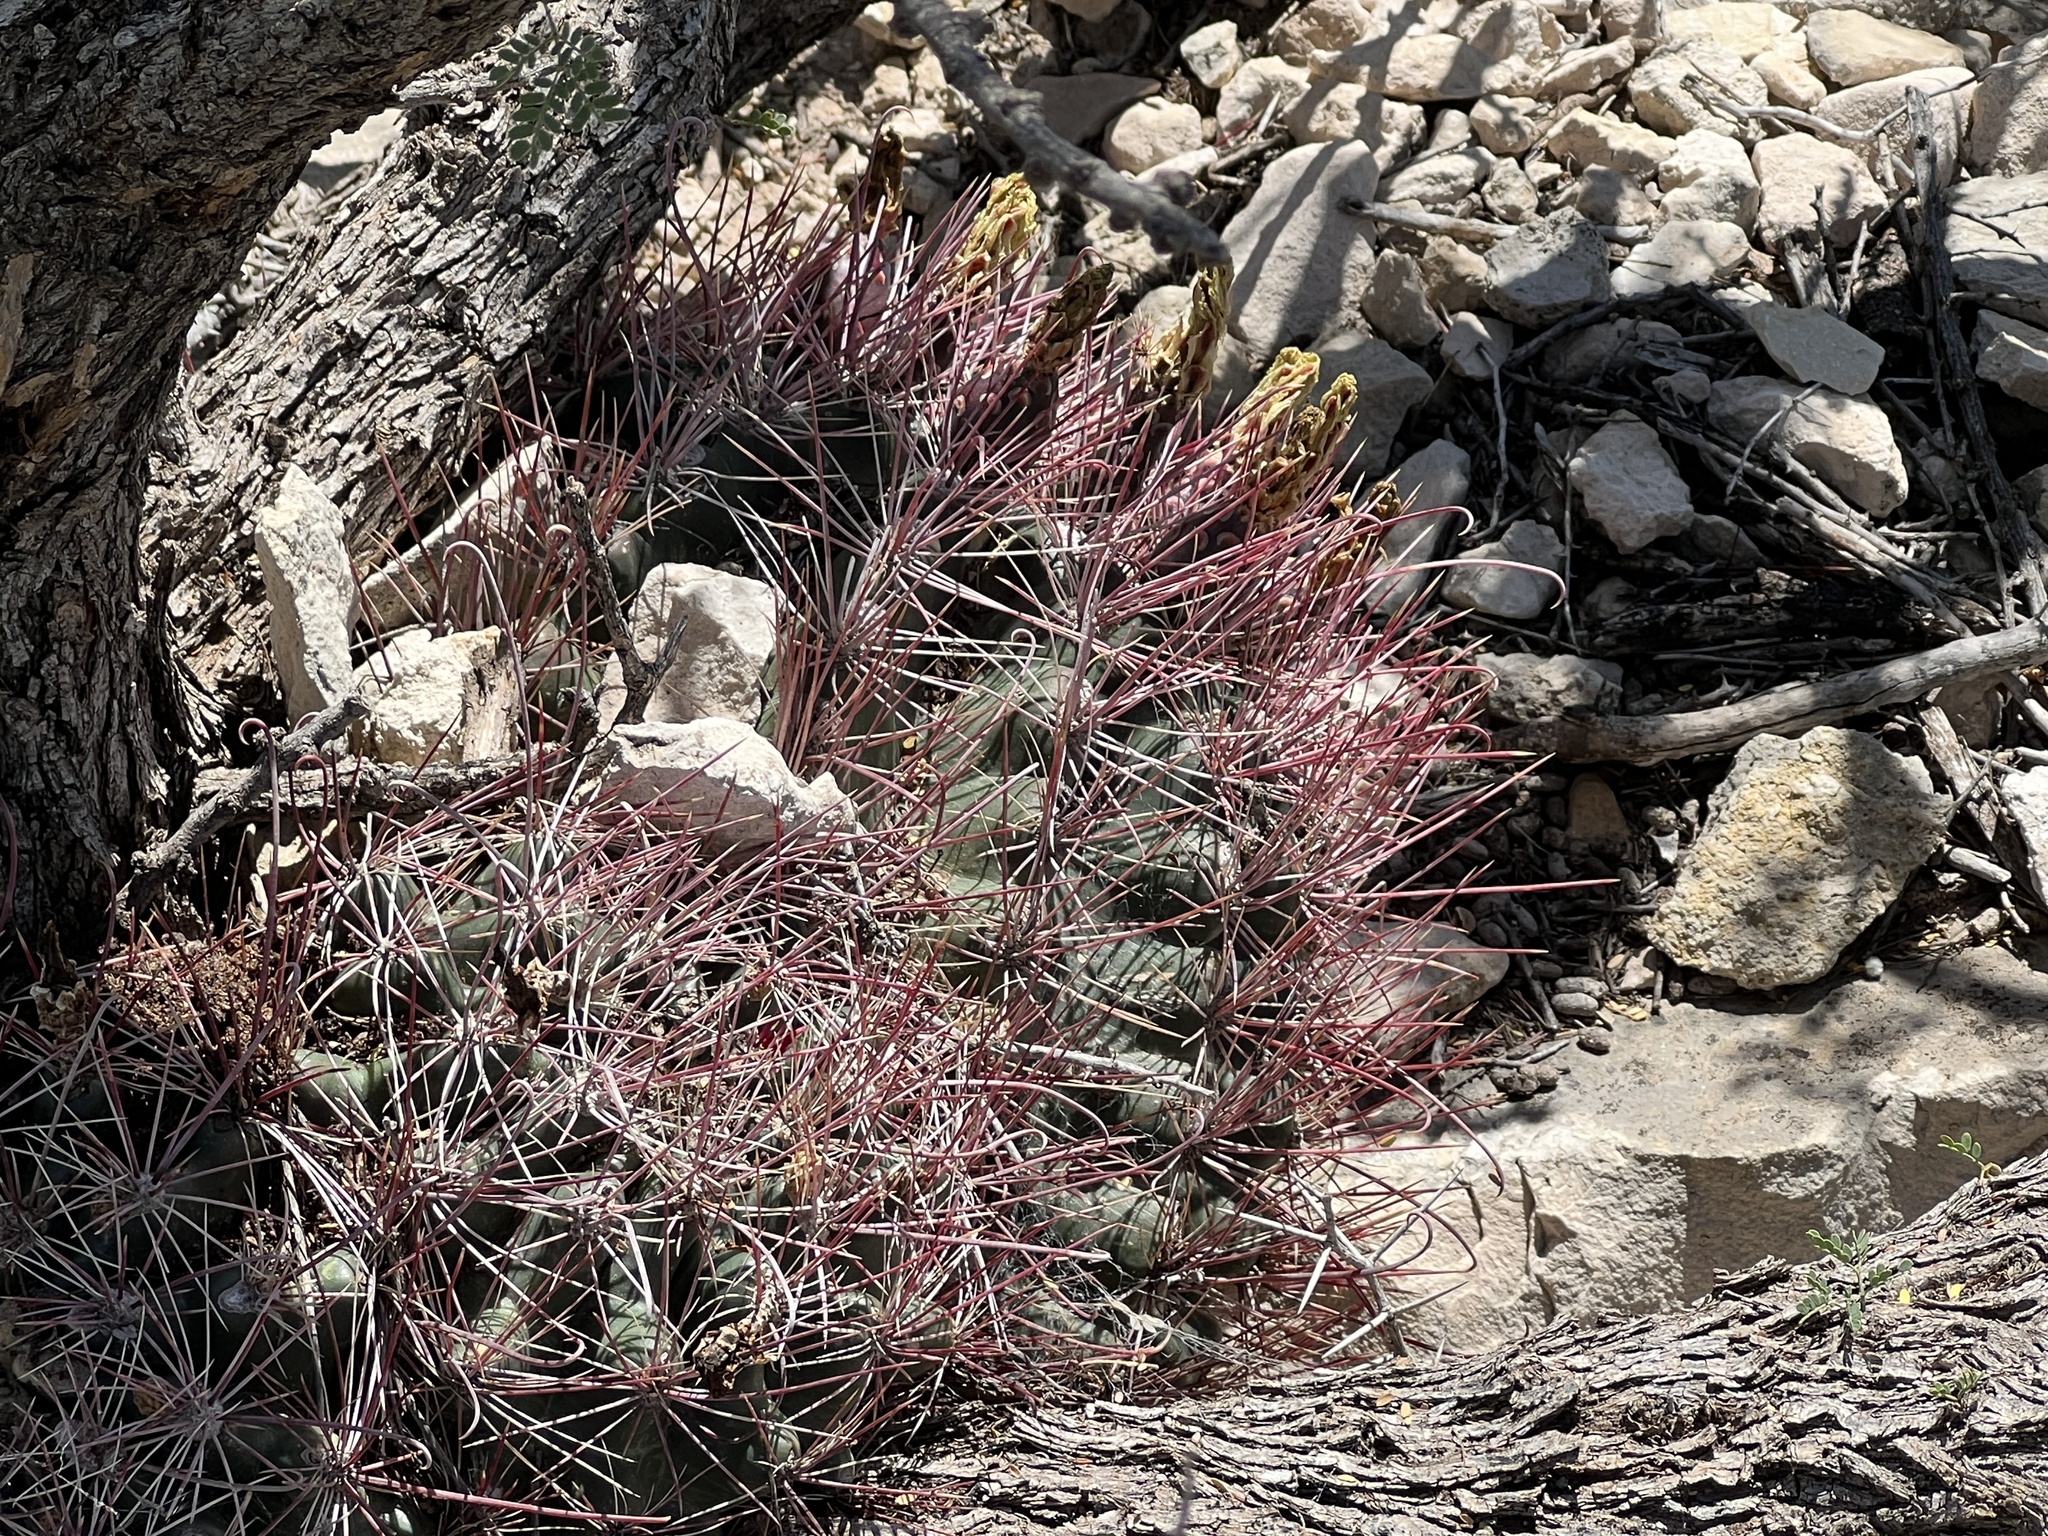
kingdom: Plantae
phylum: Tracheophyta
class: Magnoliopsida
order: Caryophyllales
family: Cactaceae
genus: Bisnaga
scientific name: Bisnaga hamatacantha
